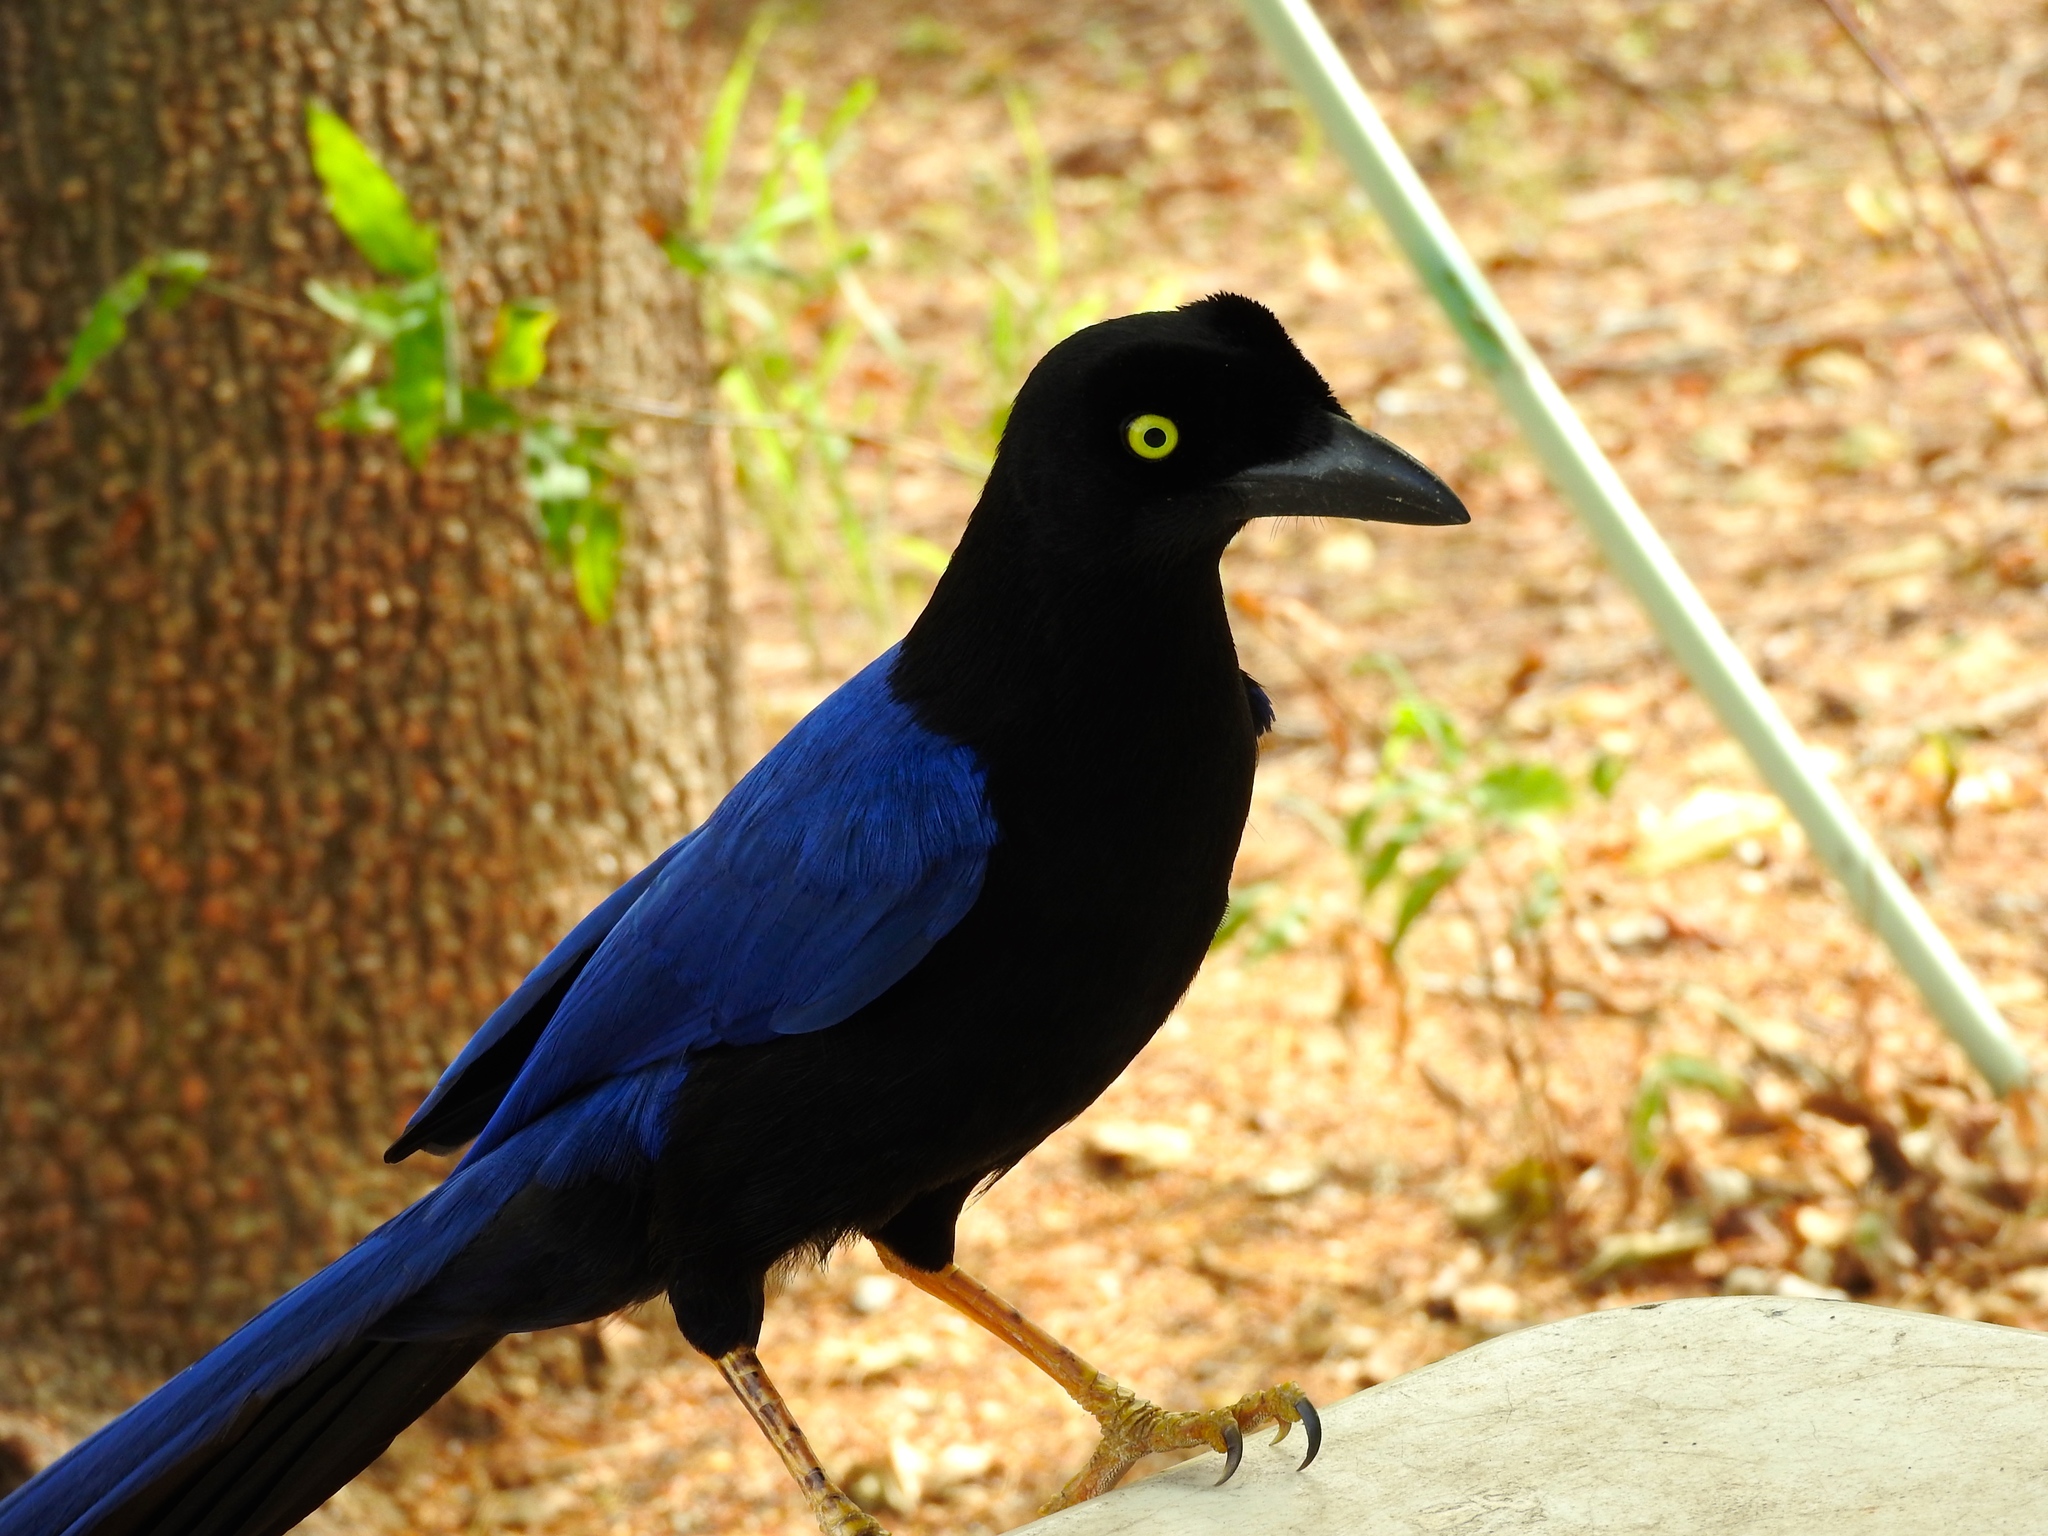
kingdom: Animalia
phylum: Chordata
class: Aves
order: Passeriformes
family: Corvidae
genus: Cyanocorax
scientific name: Cyanocorax beecheii
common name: Purplish-backed jay
